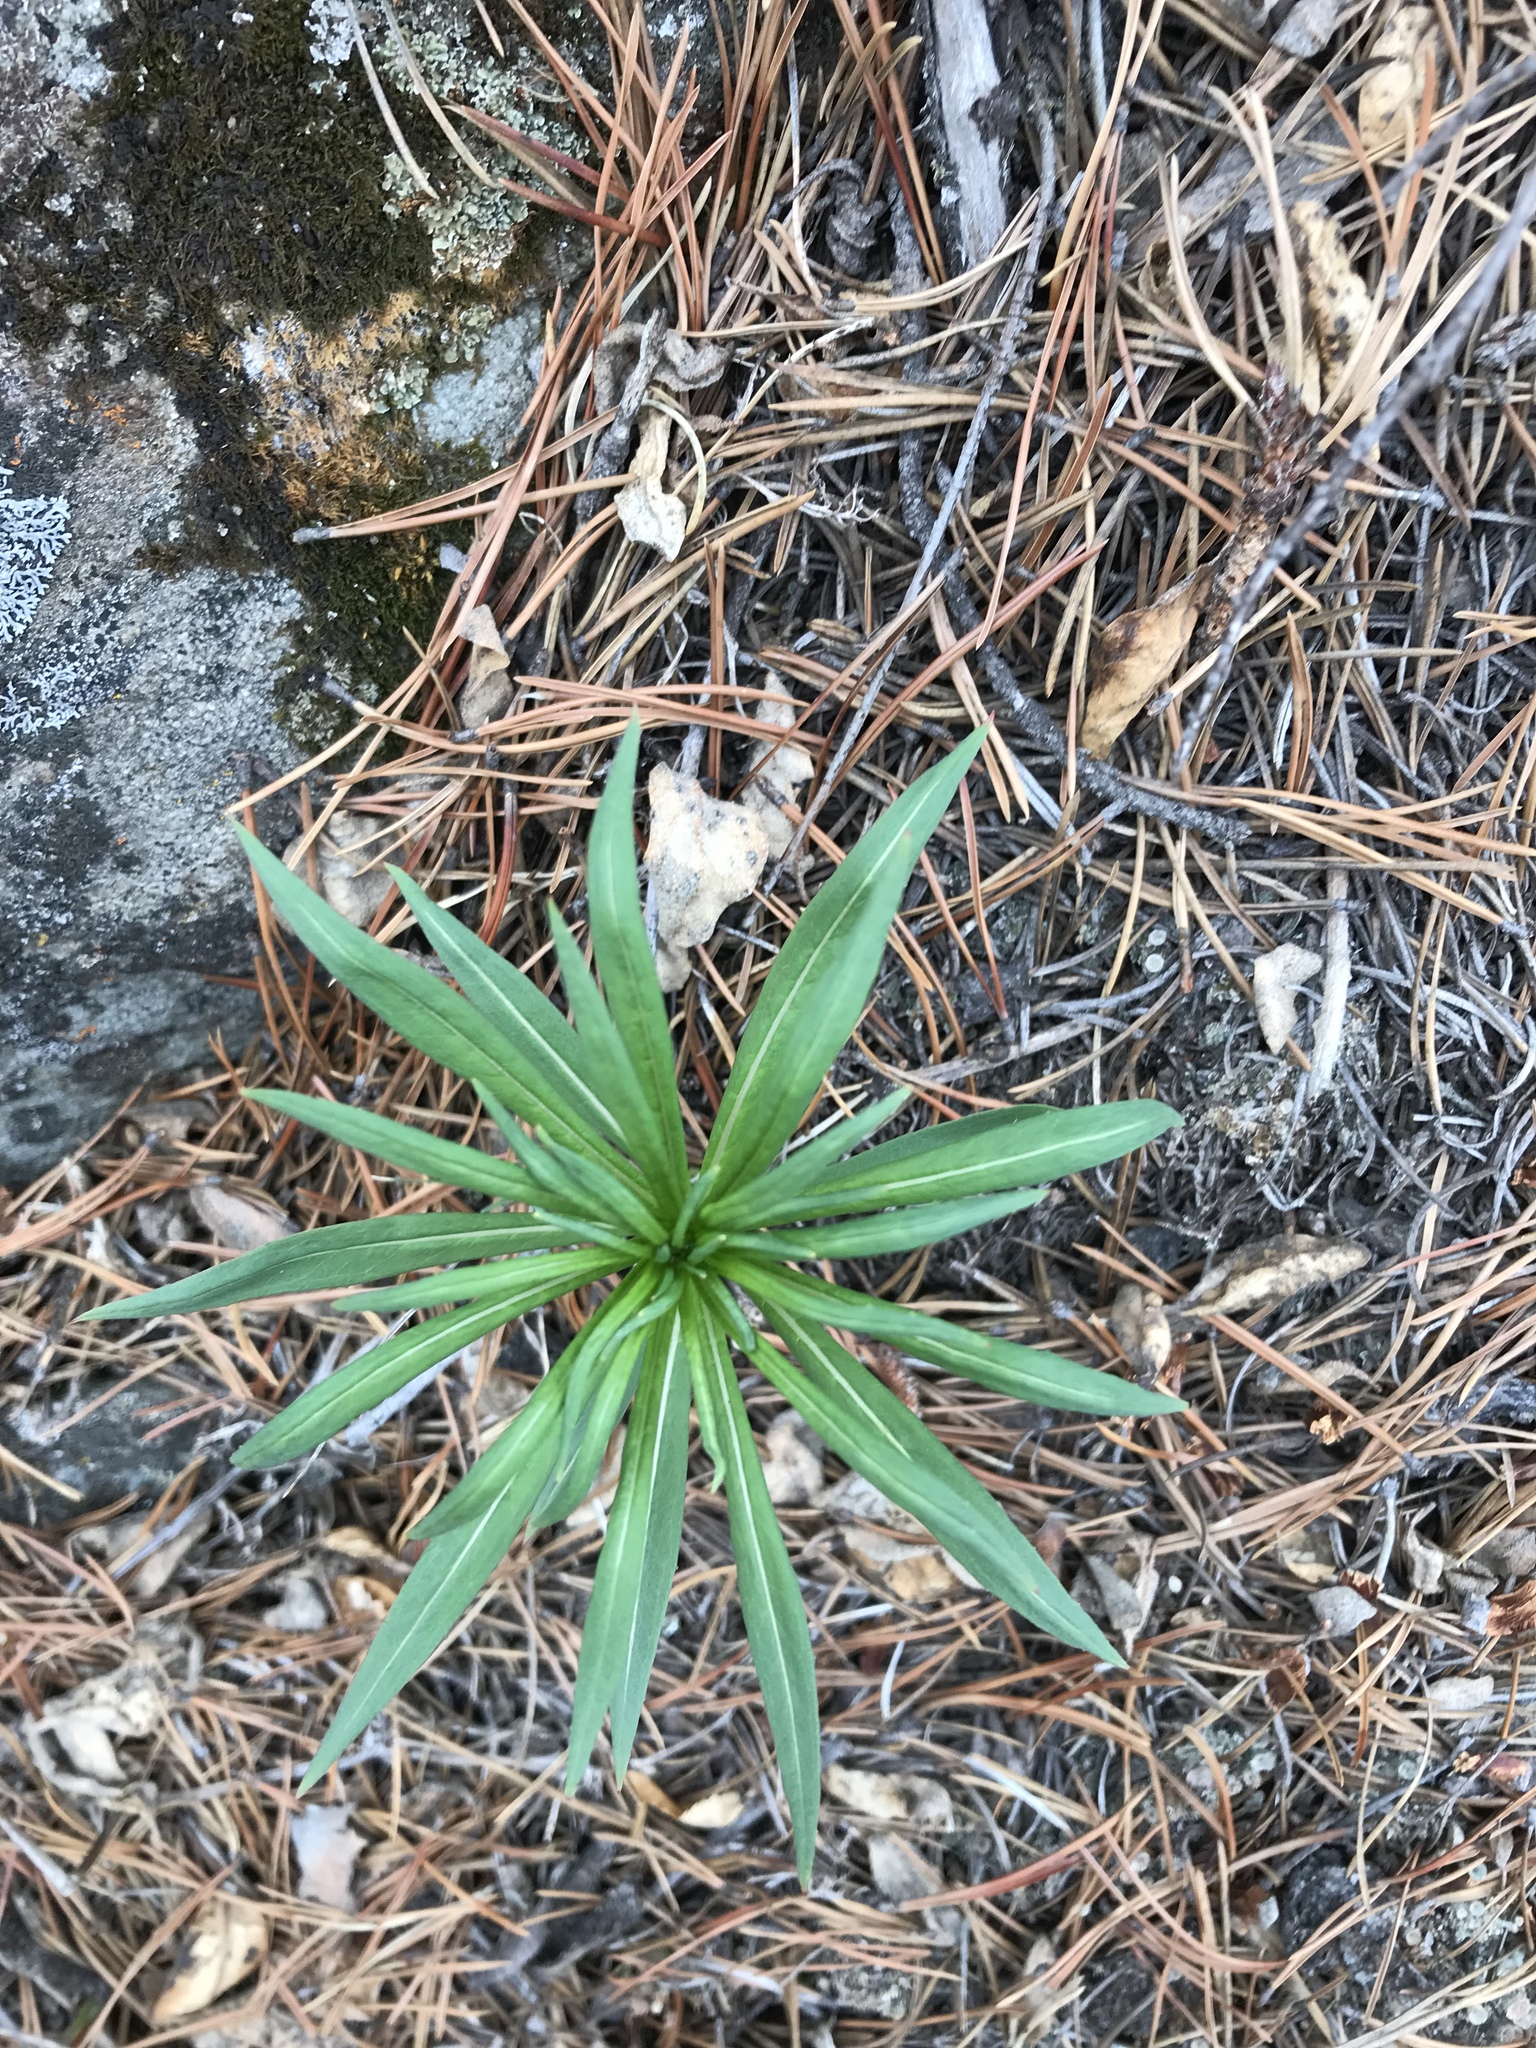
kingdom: Plantae
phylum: Tracheophyta
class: Magnoliopsida
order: Myrtales
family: Onagraceae
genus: Chamaenerion
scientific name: Chamaenerion angustifolium
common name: Fireweed
